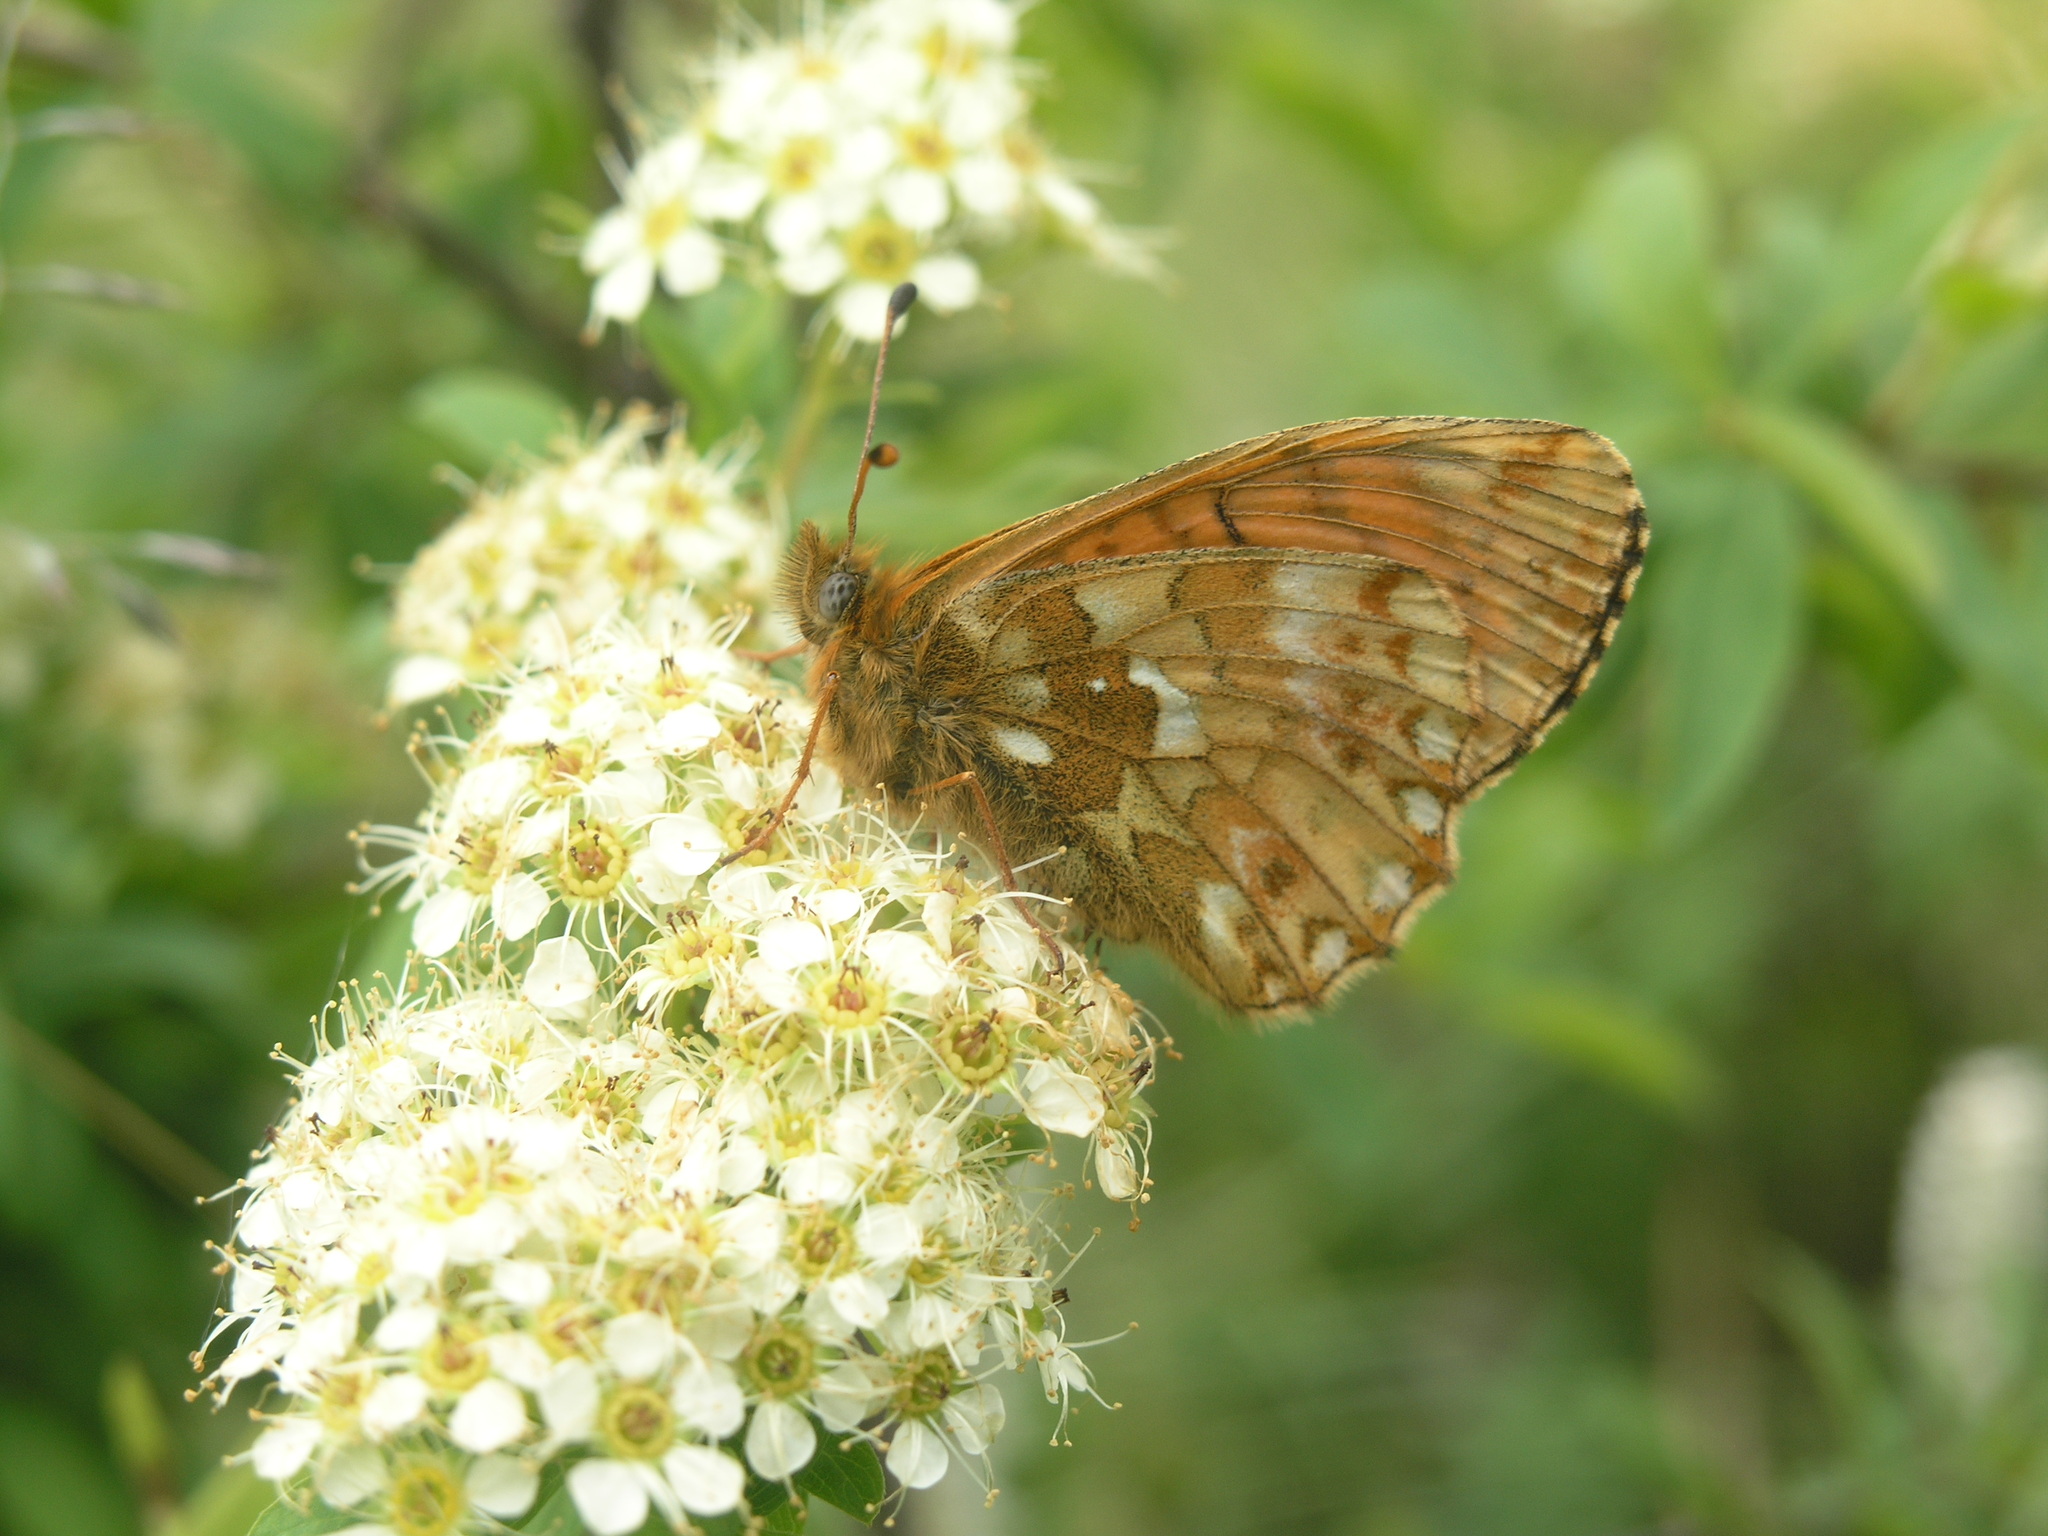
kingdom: Animalia
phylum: Arthropoda
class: Insecta
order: Lepidoptera
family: Nymphalidae
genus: Boloria
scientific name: Boloria
